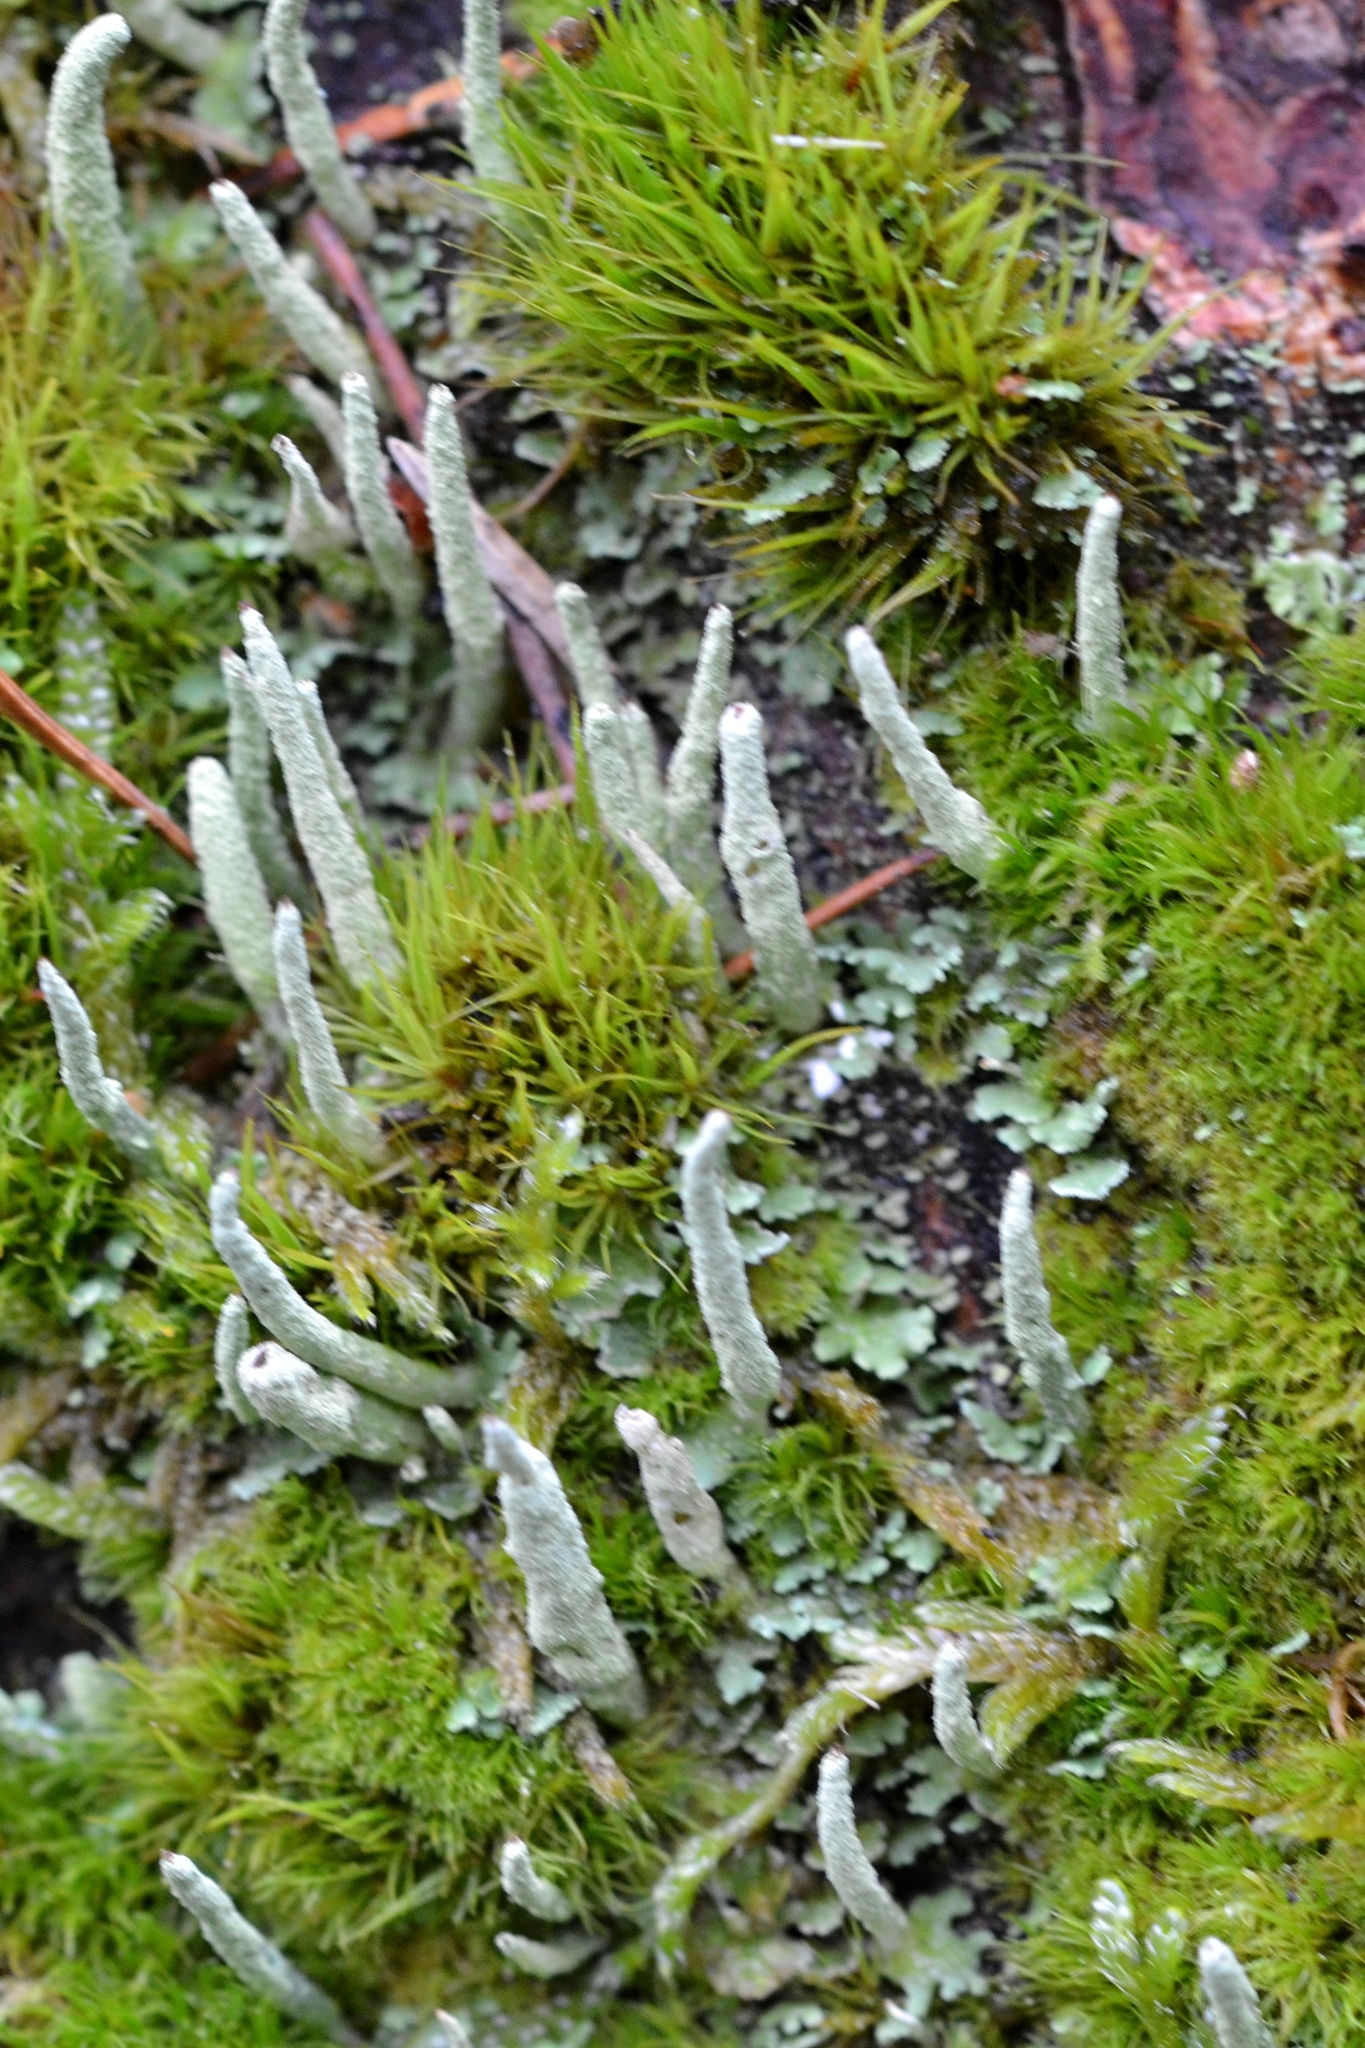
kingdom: Fungi
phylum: Ascomycota
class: Lecanoromycetes
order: Lecanorales
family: Cladoniaceae
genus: Cladonia
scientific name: Cladonia coniocraea
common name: Common powderhorn
